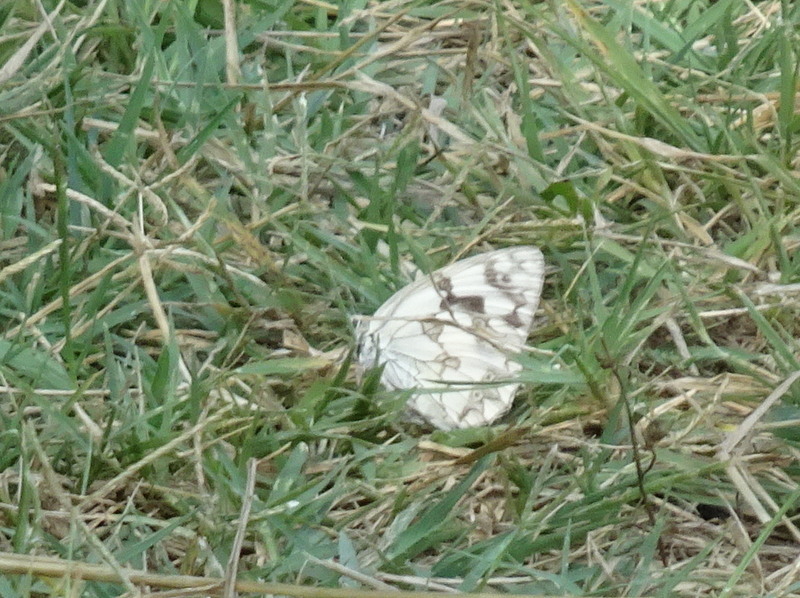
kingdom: Animalia
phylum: Arthropoda
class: Insecta
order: Lepidoptera
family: Nymphalidae
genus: Melanargia
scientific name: Melanargia lachesis
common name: Iberian marbled white
